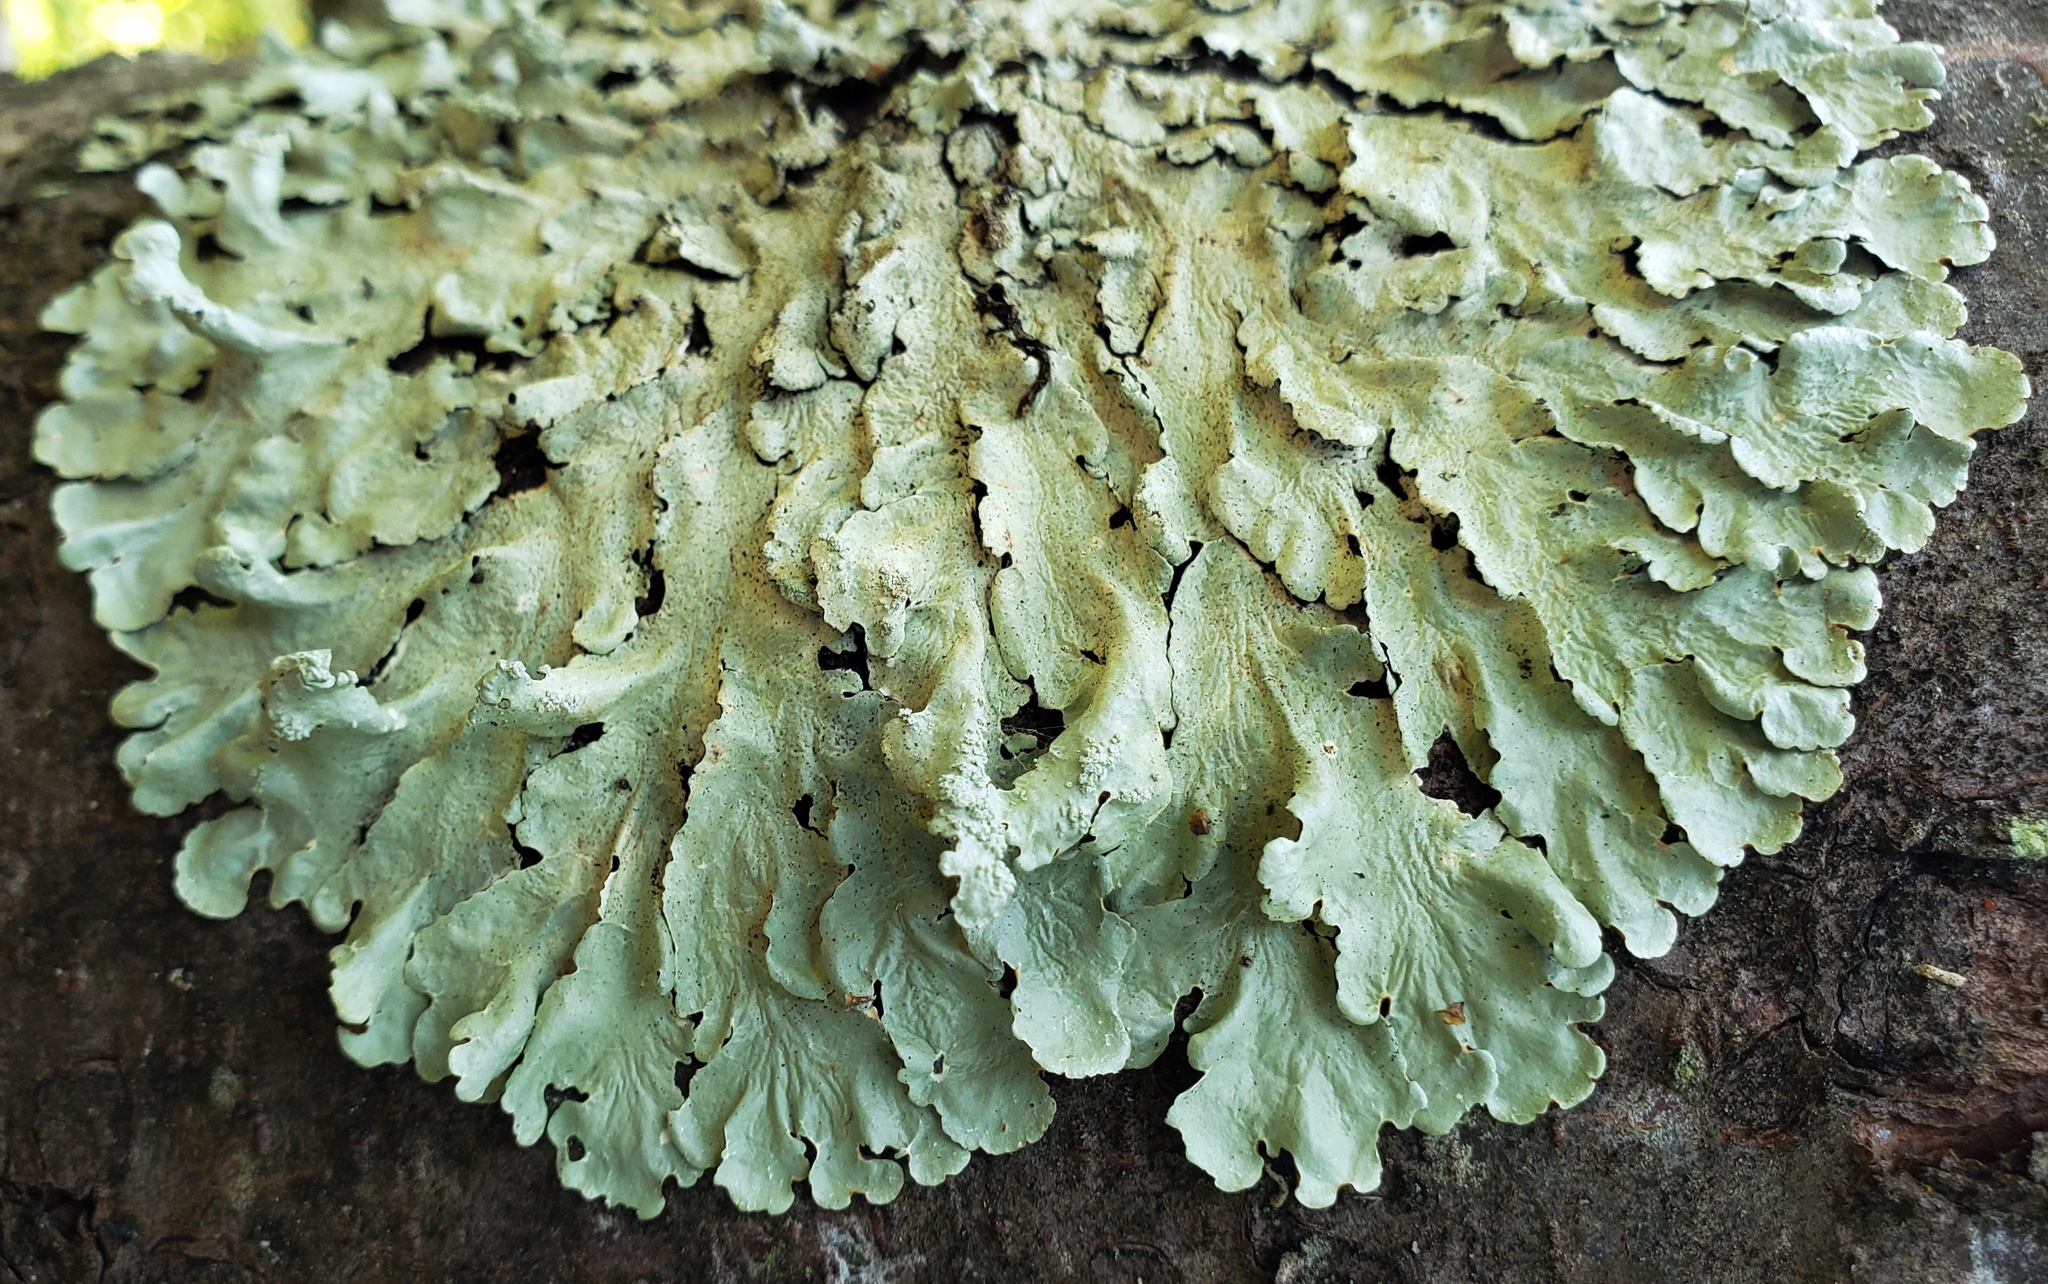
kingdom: Fungi
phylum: Ascomycota
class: Lecanoromycetes
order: Lecanorales
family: Parmeliaceae
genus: Flavoparmelia
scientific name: Flavoparmelia caperata
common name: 40-mile per hour lichen
